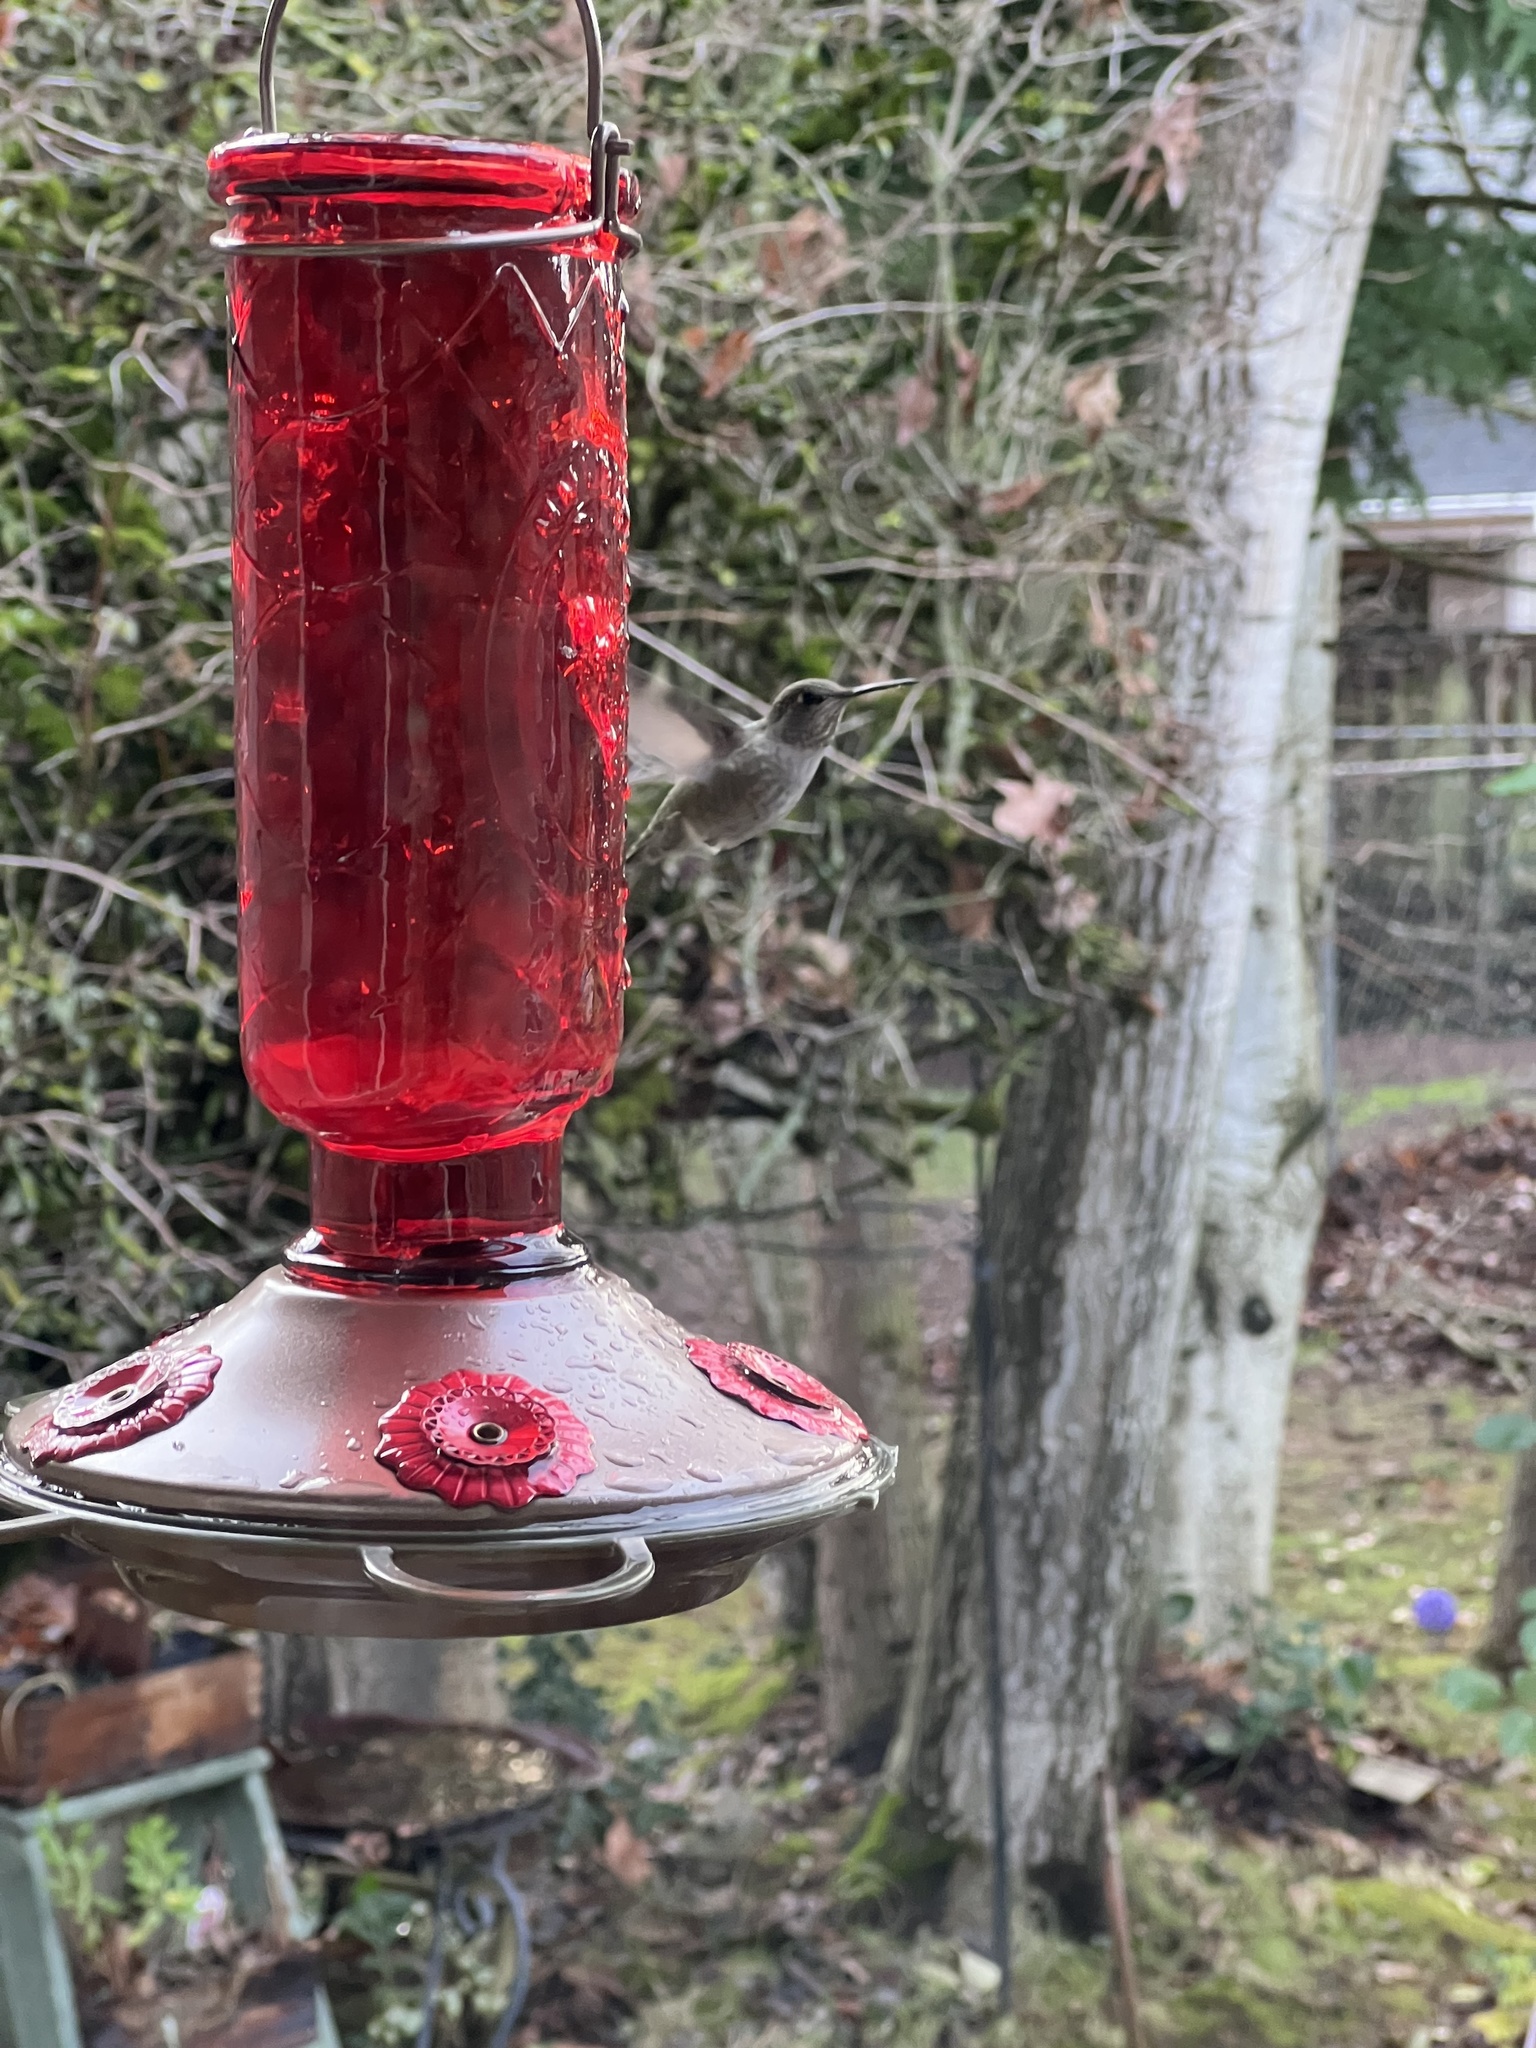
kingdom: Animalia
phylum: Chordata
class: Aves
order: Apodiformes
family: Trochilidae
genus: Calypte
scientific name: Calypte anna
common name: Anna's hummingbird
